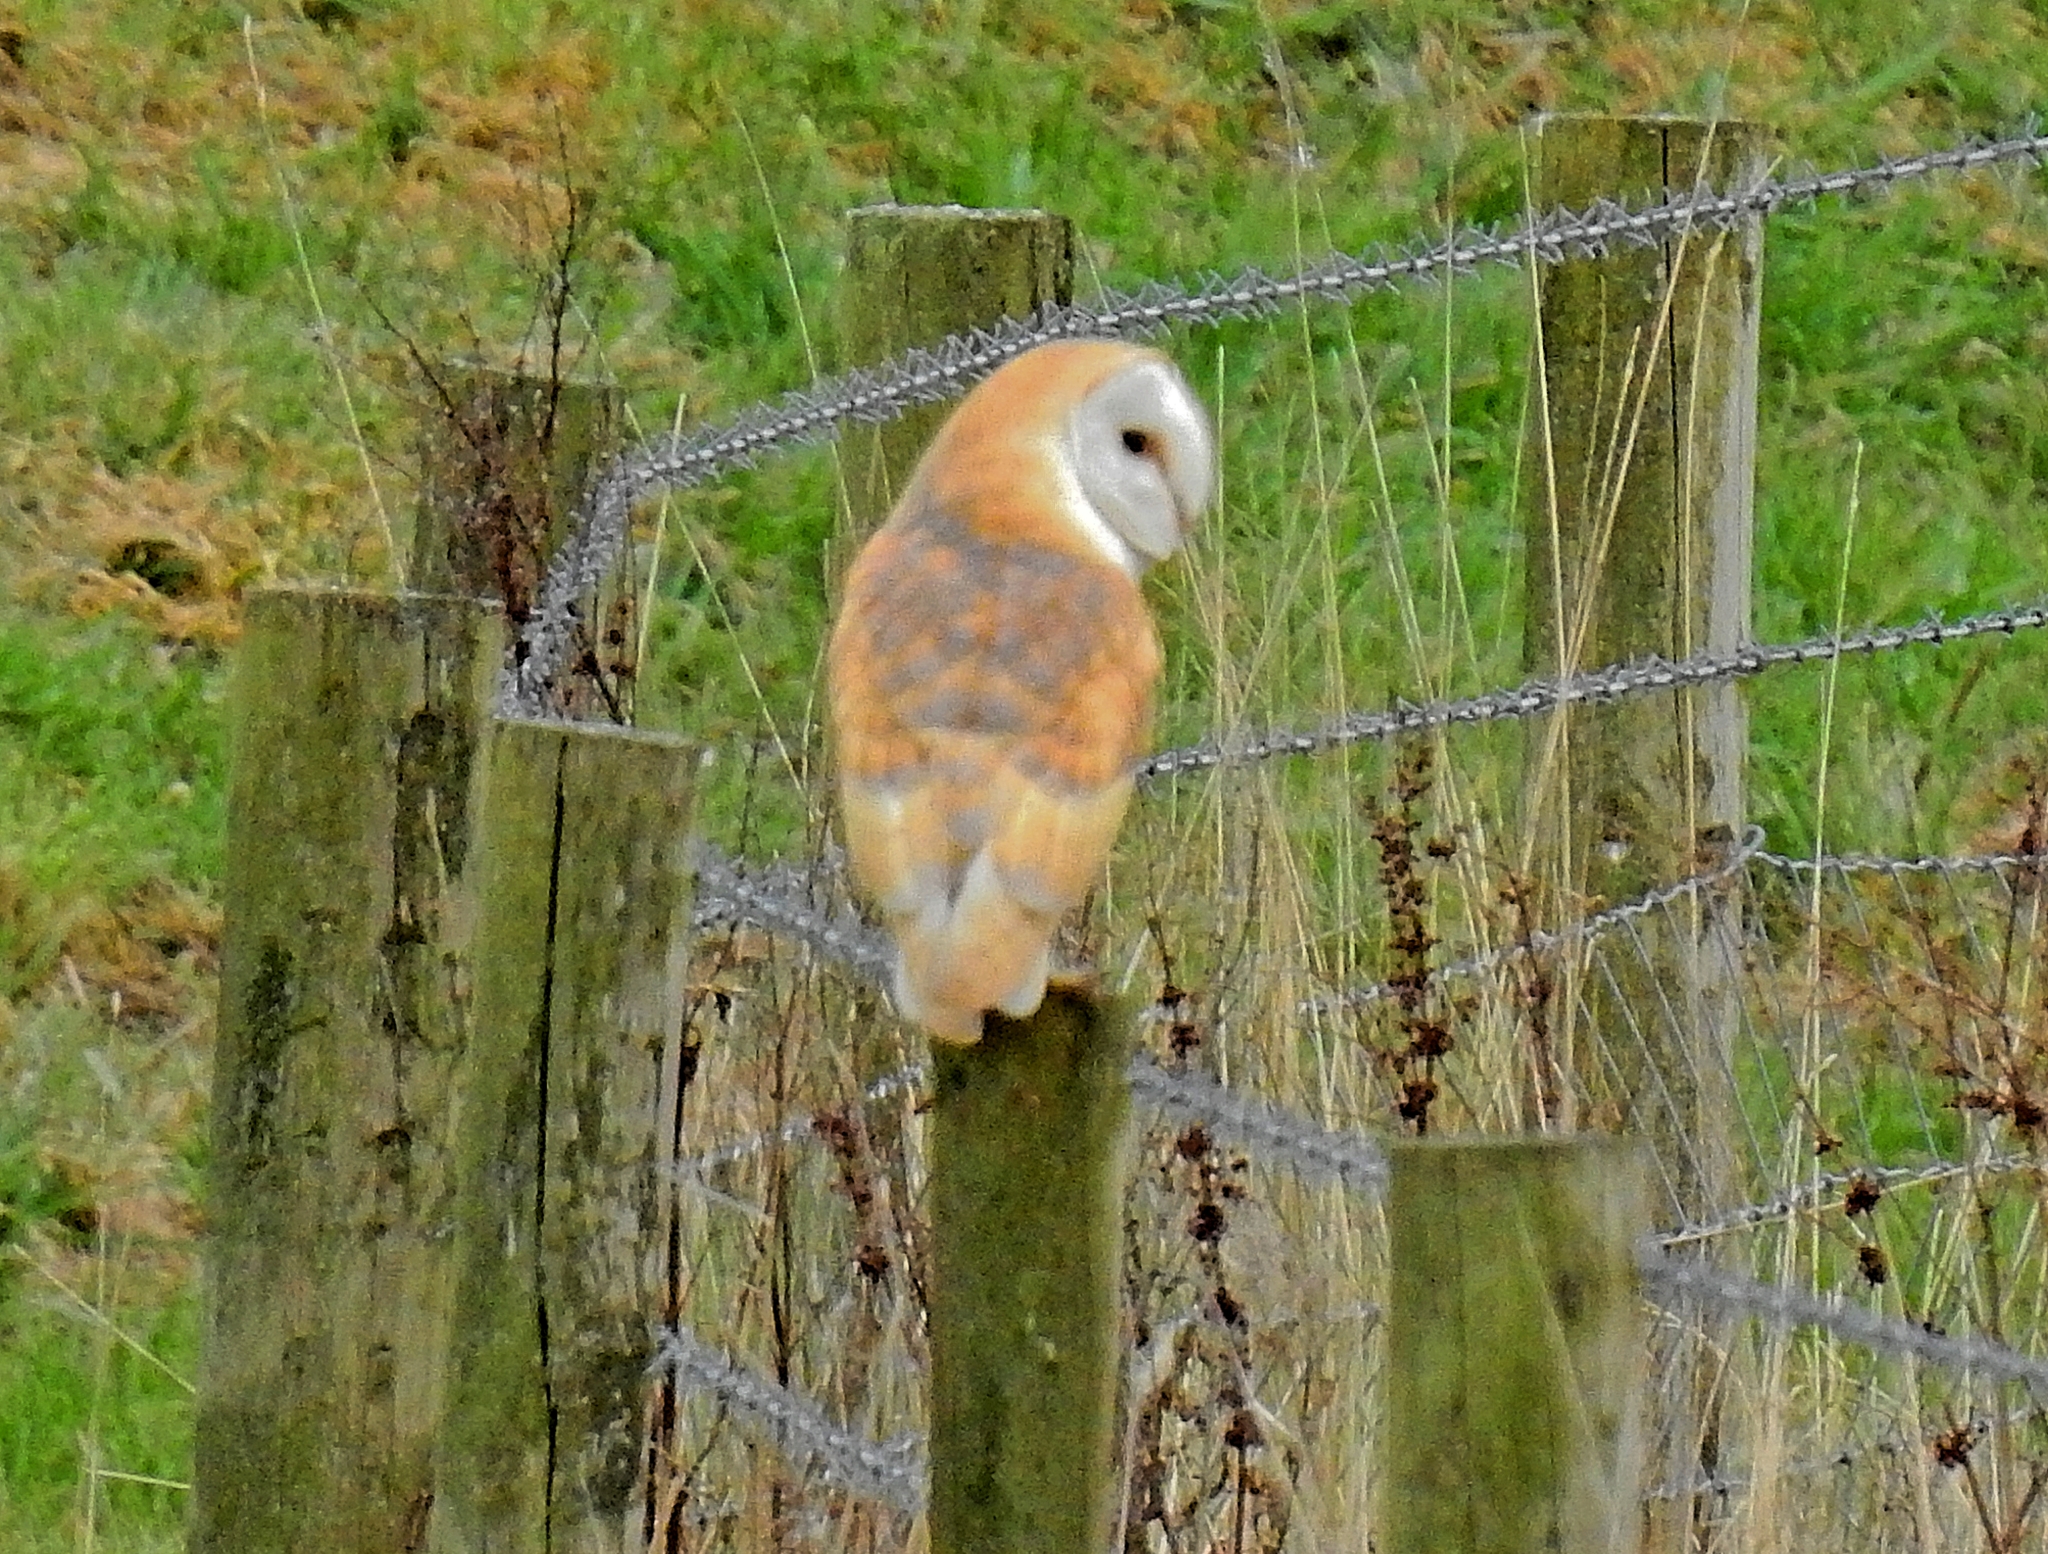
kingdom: Animalia
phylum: Chordata
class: Aves
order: Strigiformes
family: Tytonidae
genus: Tyto
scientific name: Tyto alba
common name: Barn owl
